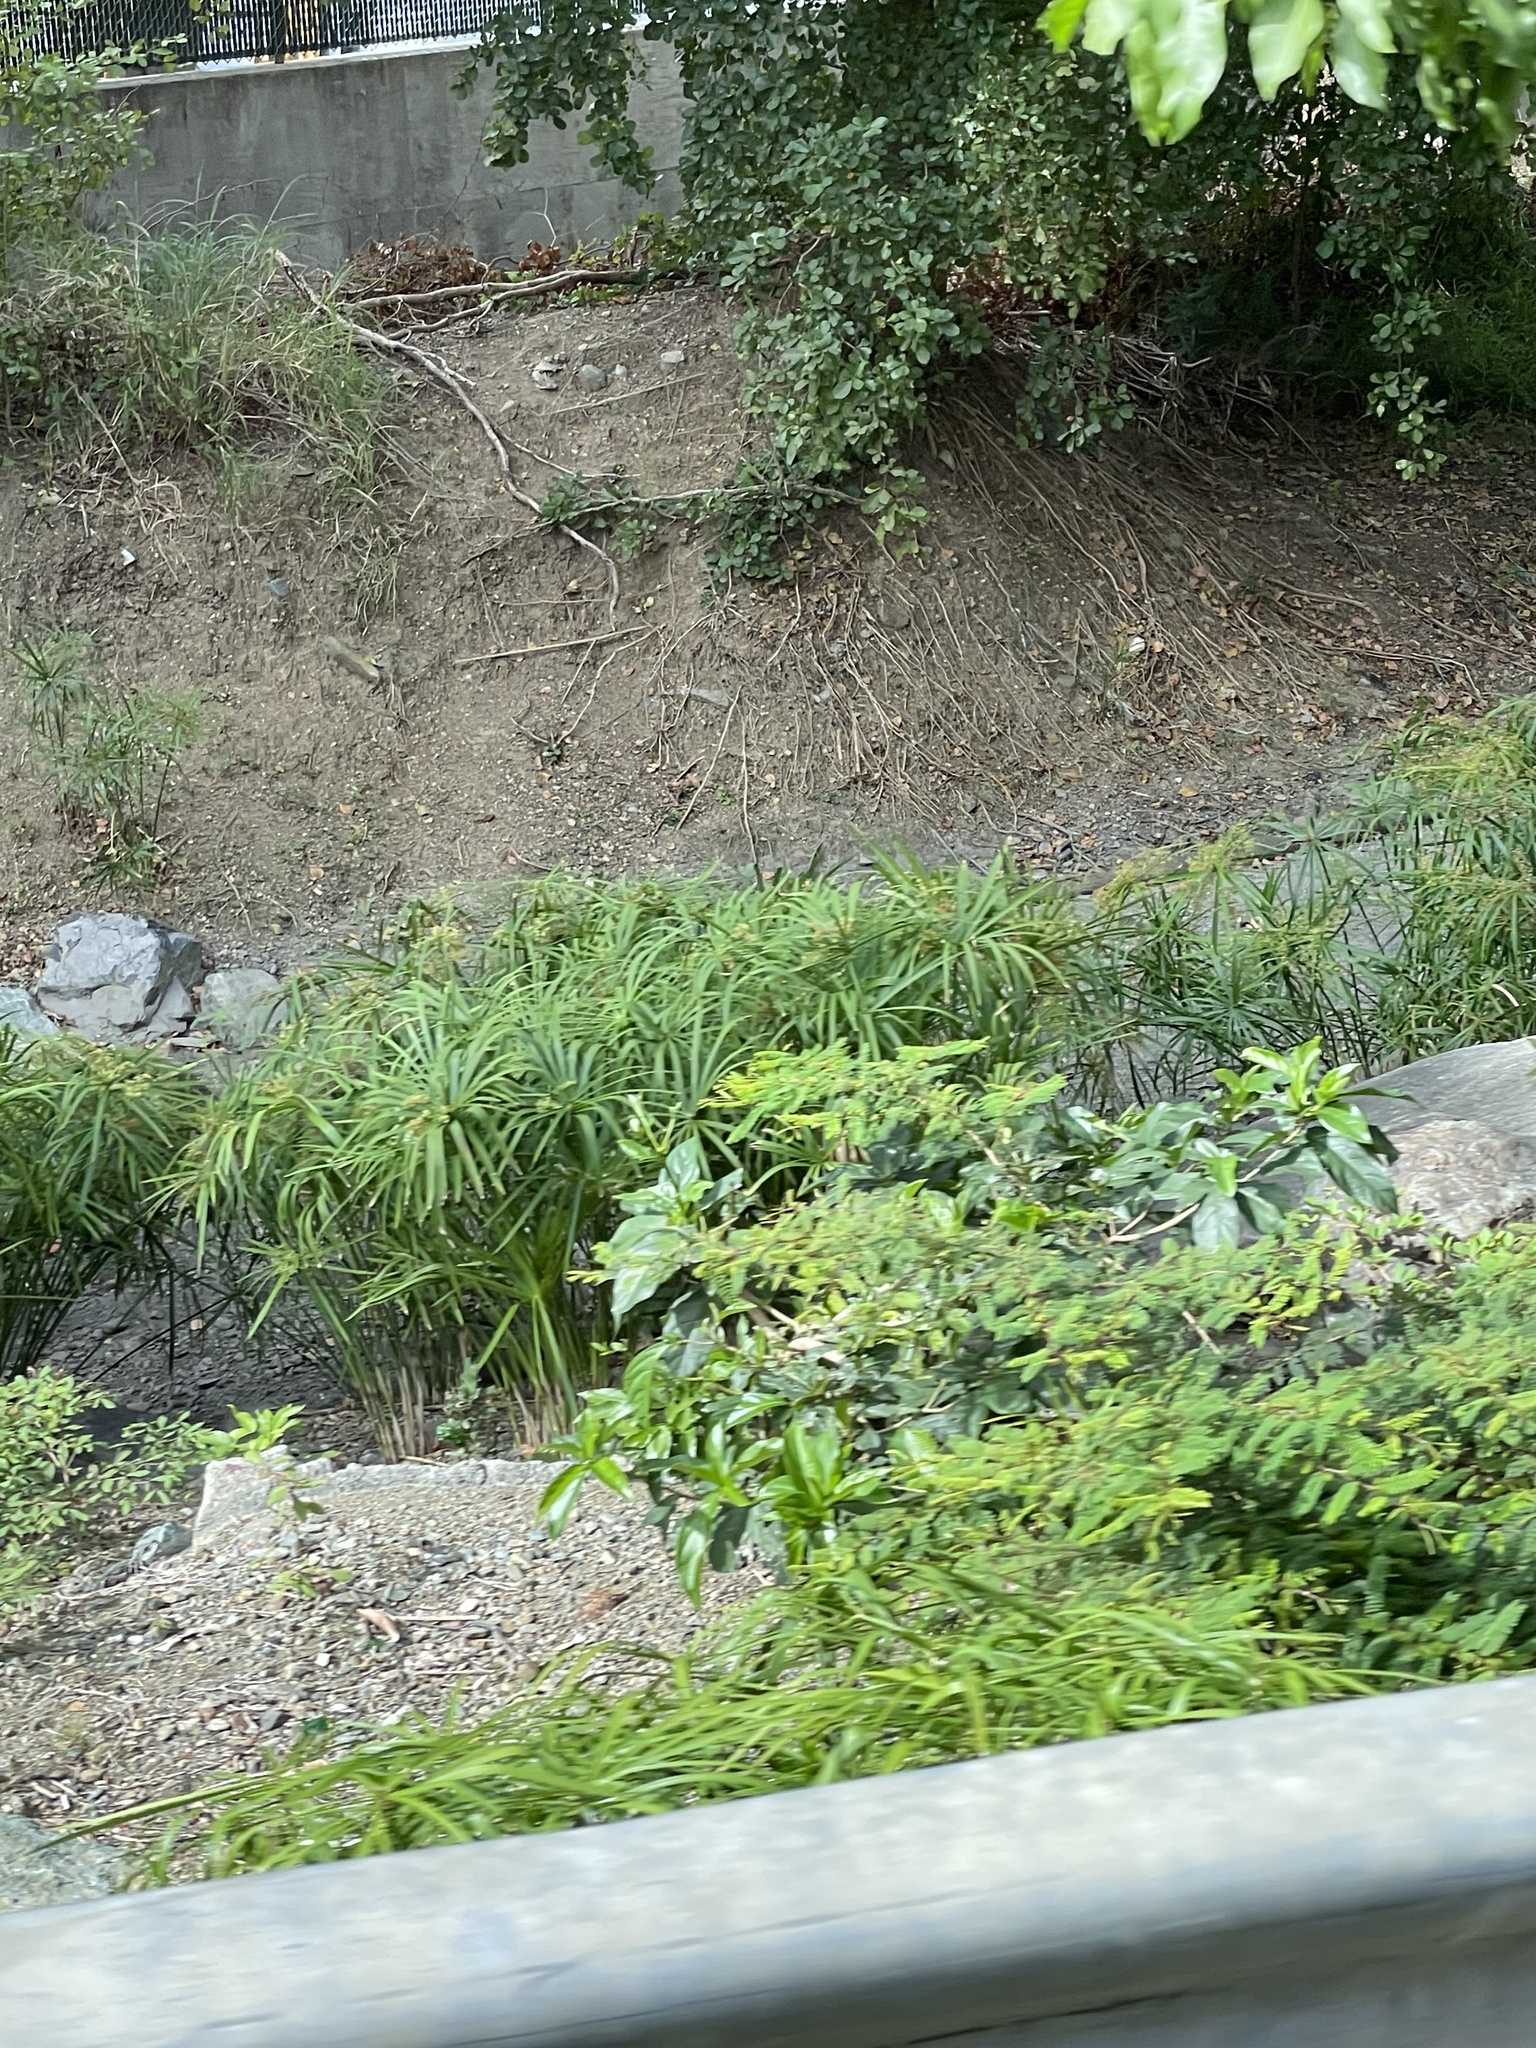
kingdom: Plantae
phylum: Tracheophyta
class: Liliopsida
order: Poales
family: Cyperaceae
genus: Cyperus
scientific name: Cyperus alternifolius
